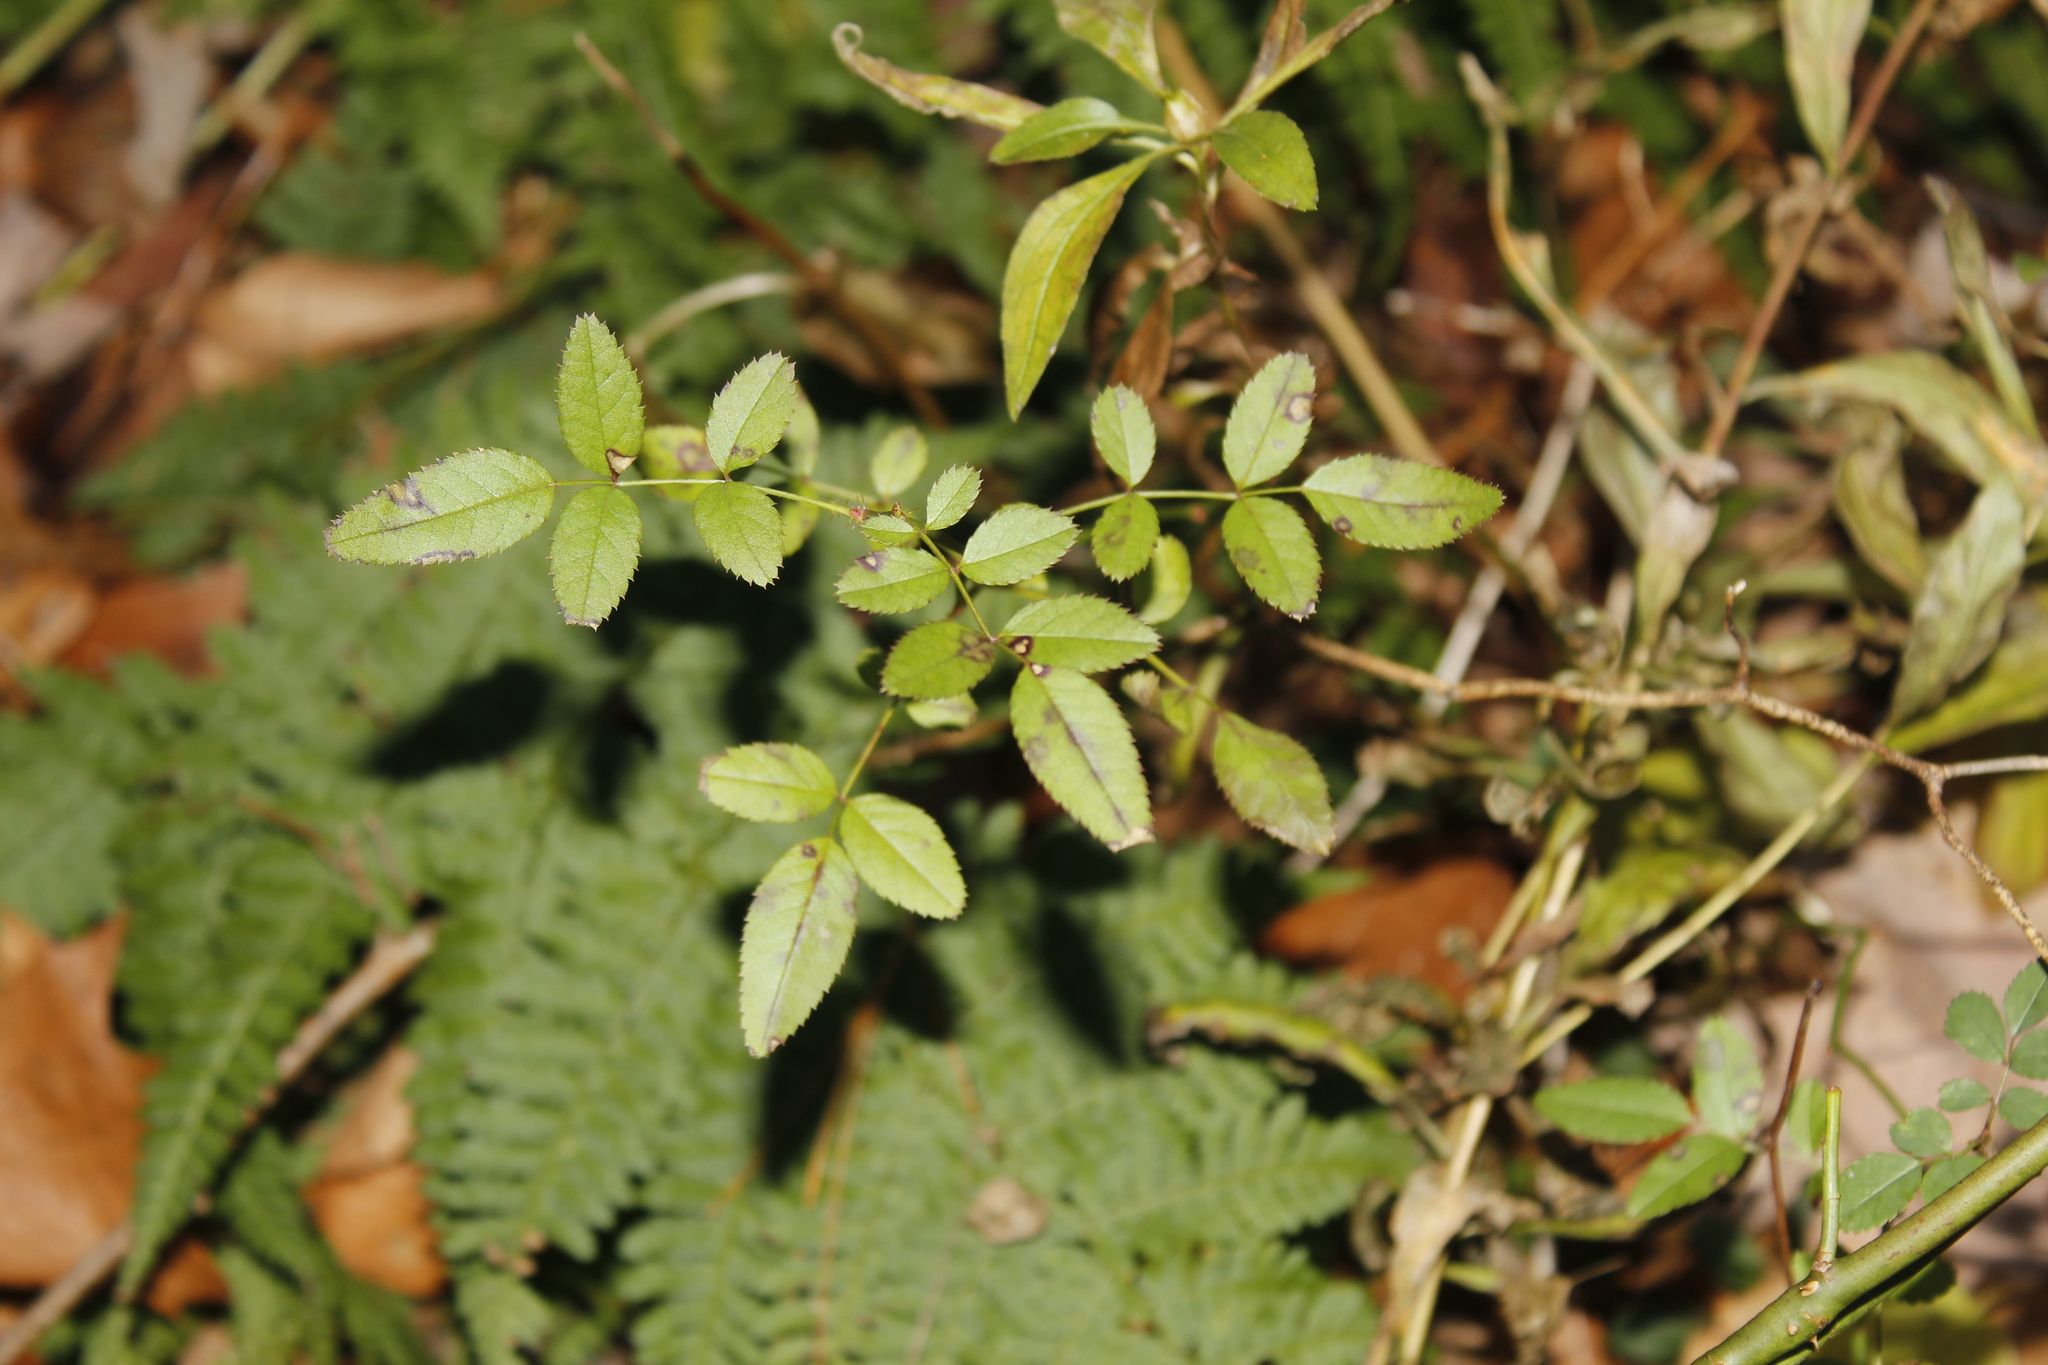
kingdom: Plantae
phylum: Tracheophyta
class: Magnoliopsida
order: Rosales
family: Rosaceae
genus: Rosa
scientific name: Rosa multiflora
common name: Multiflora rose
